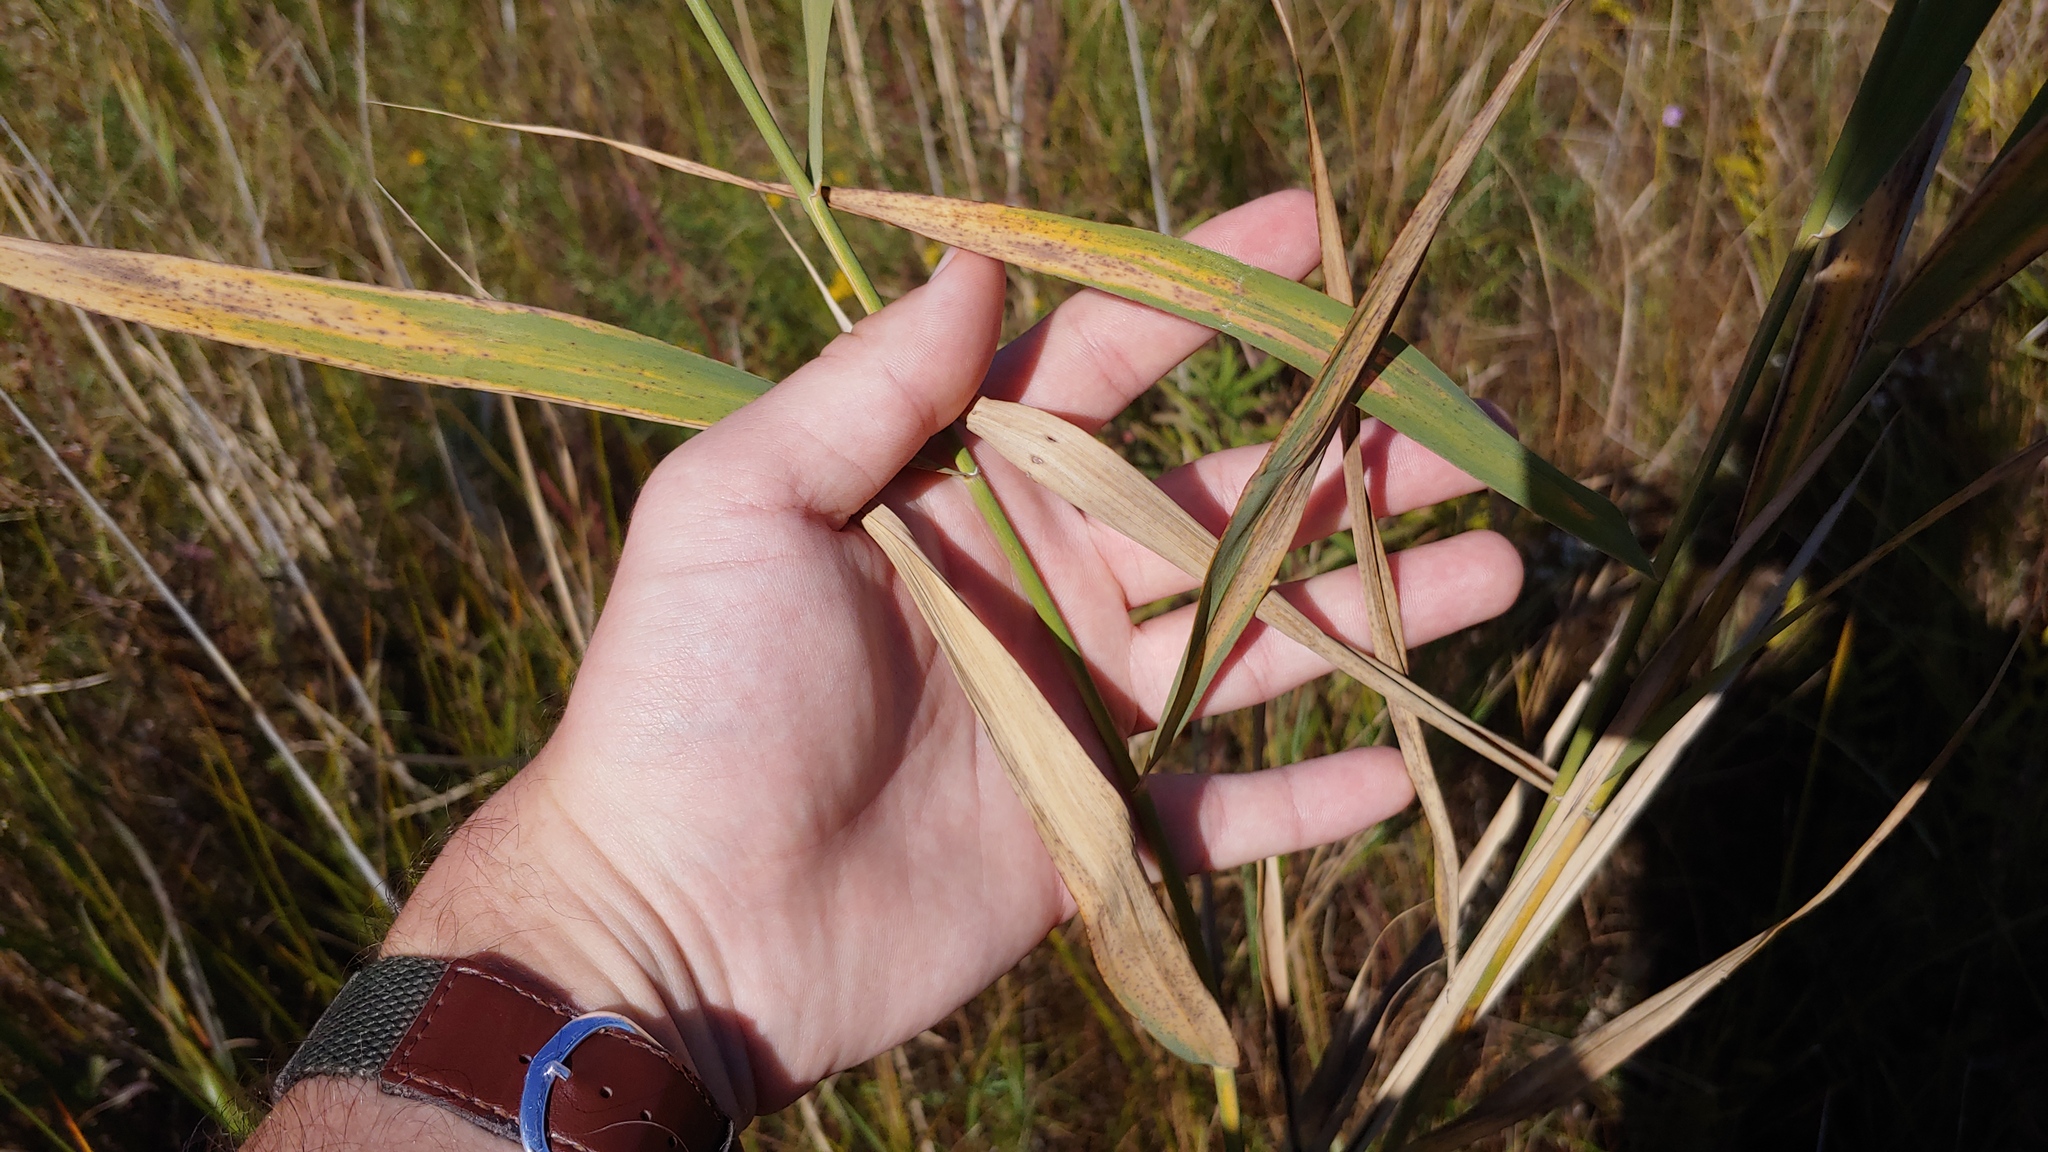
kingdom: Plantae
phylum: Tracheophyta
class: Liliopsida
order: Poales
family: Poaceae
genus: Phragmites
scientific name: Phragmites australis
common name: Common reed
